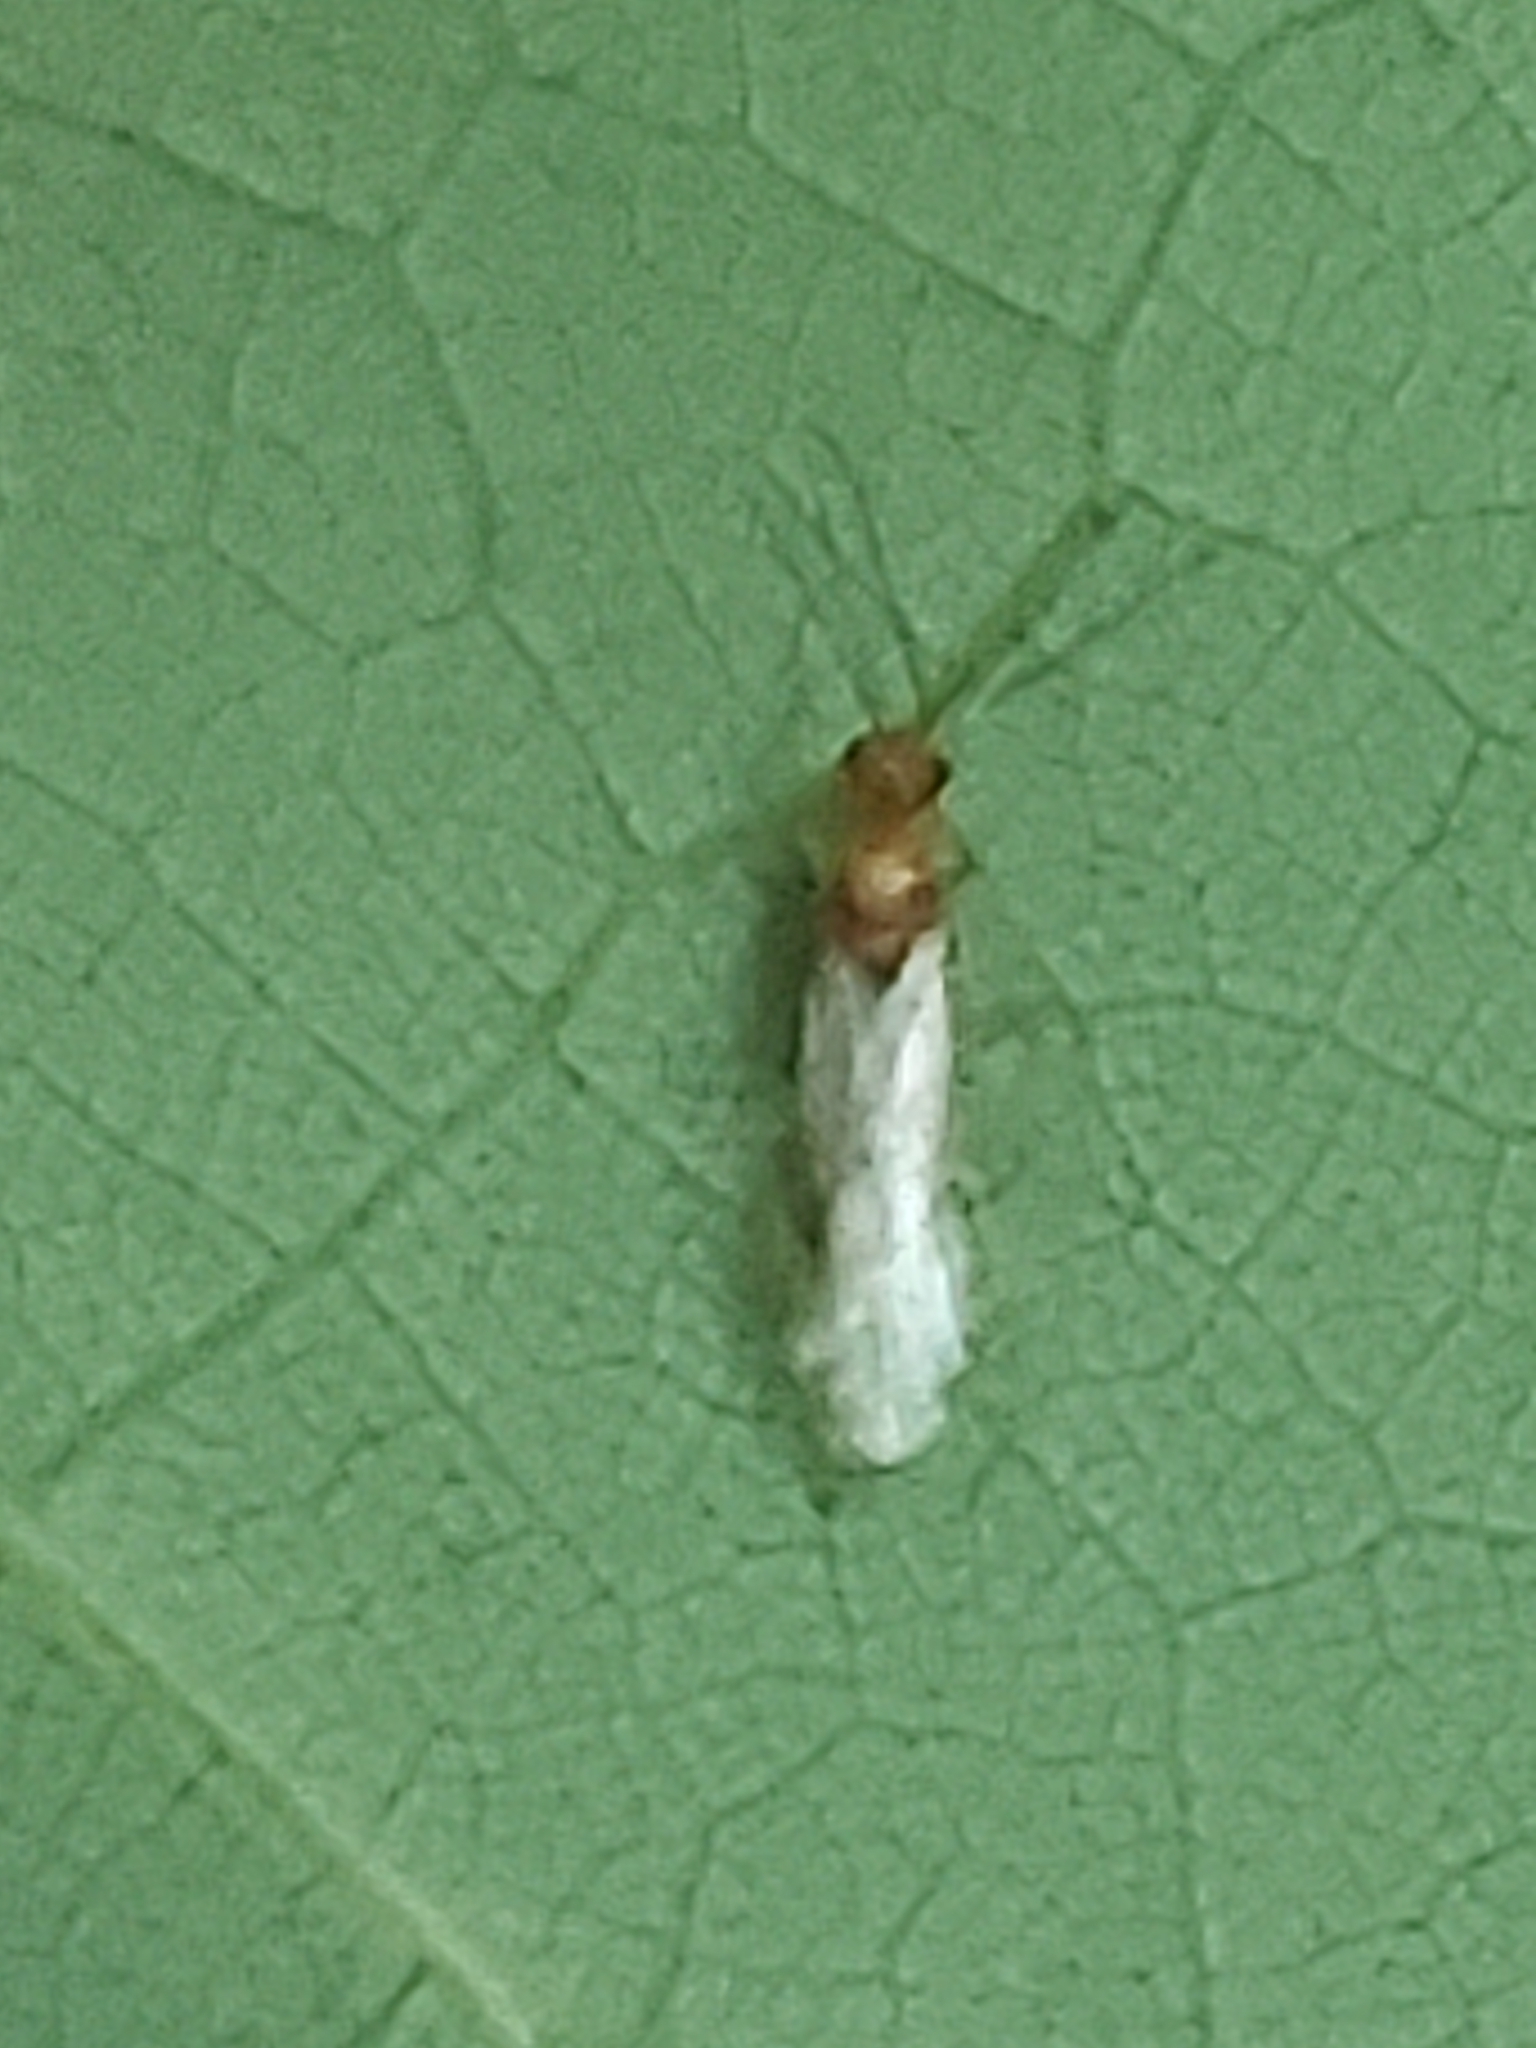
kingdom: Animalia
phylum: Arthropoda
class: Insecta
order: Hymenoptera
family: Formicidae
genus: Pachycondyla
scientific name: Pachycondyla chinensis
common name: Asian needle ant
